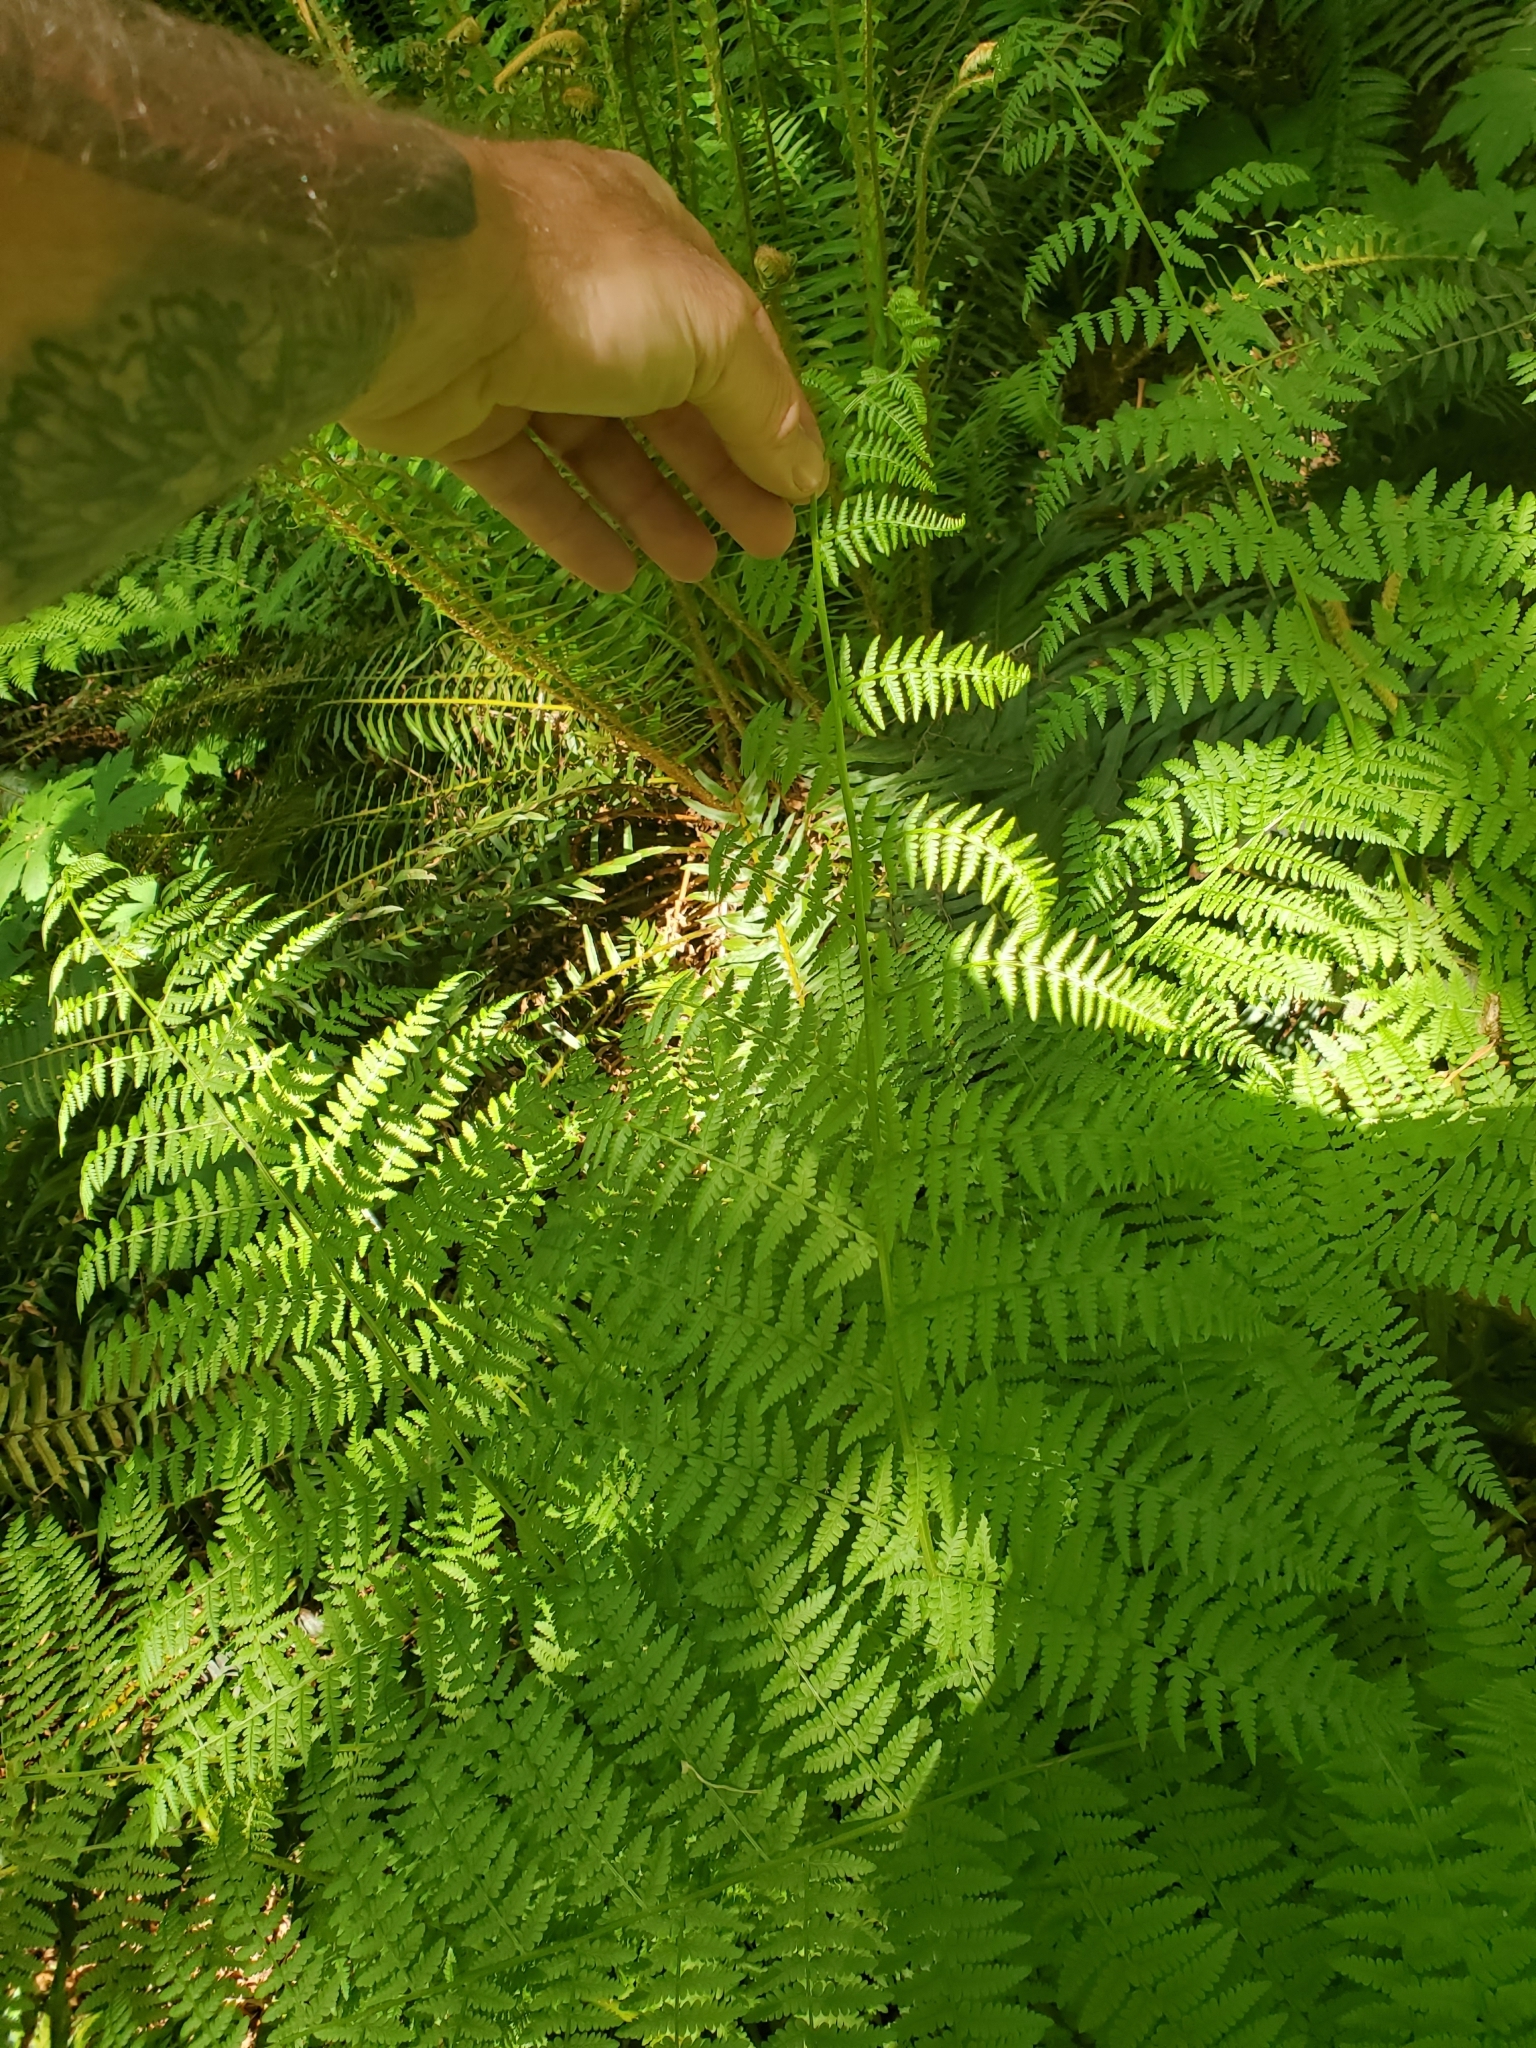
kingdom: Plantae
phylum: Tracheophyta
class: Polypodiopsida
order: Polypodiales
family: Athyriaceae
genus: Athyrium
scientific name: Athyrium filix-femina
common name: Lady fern
